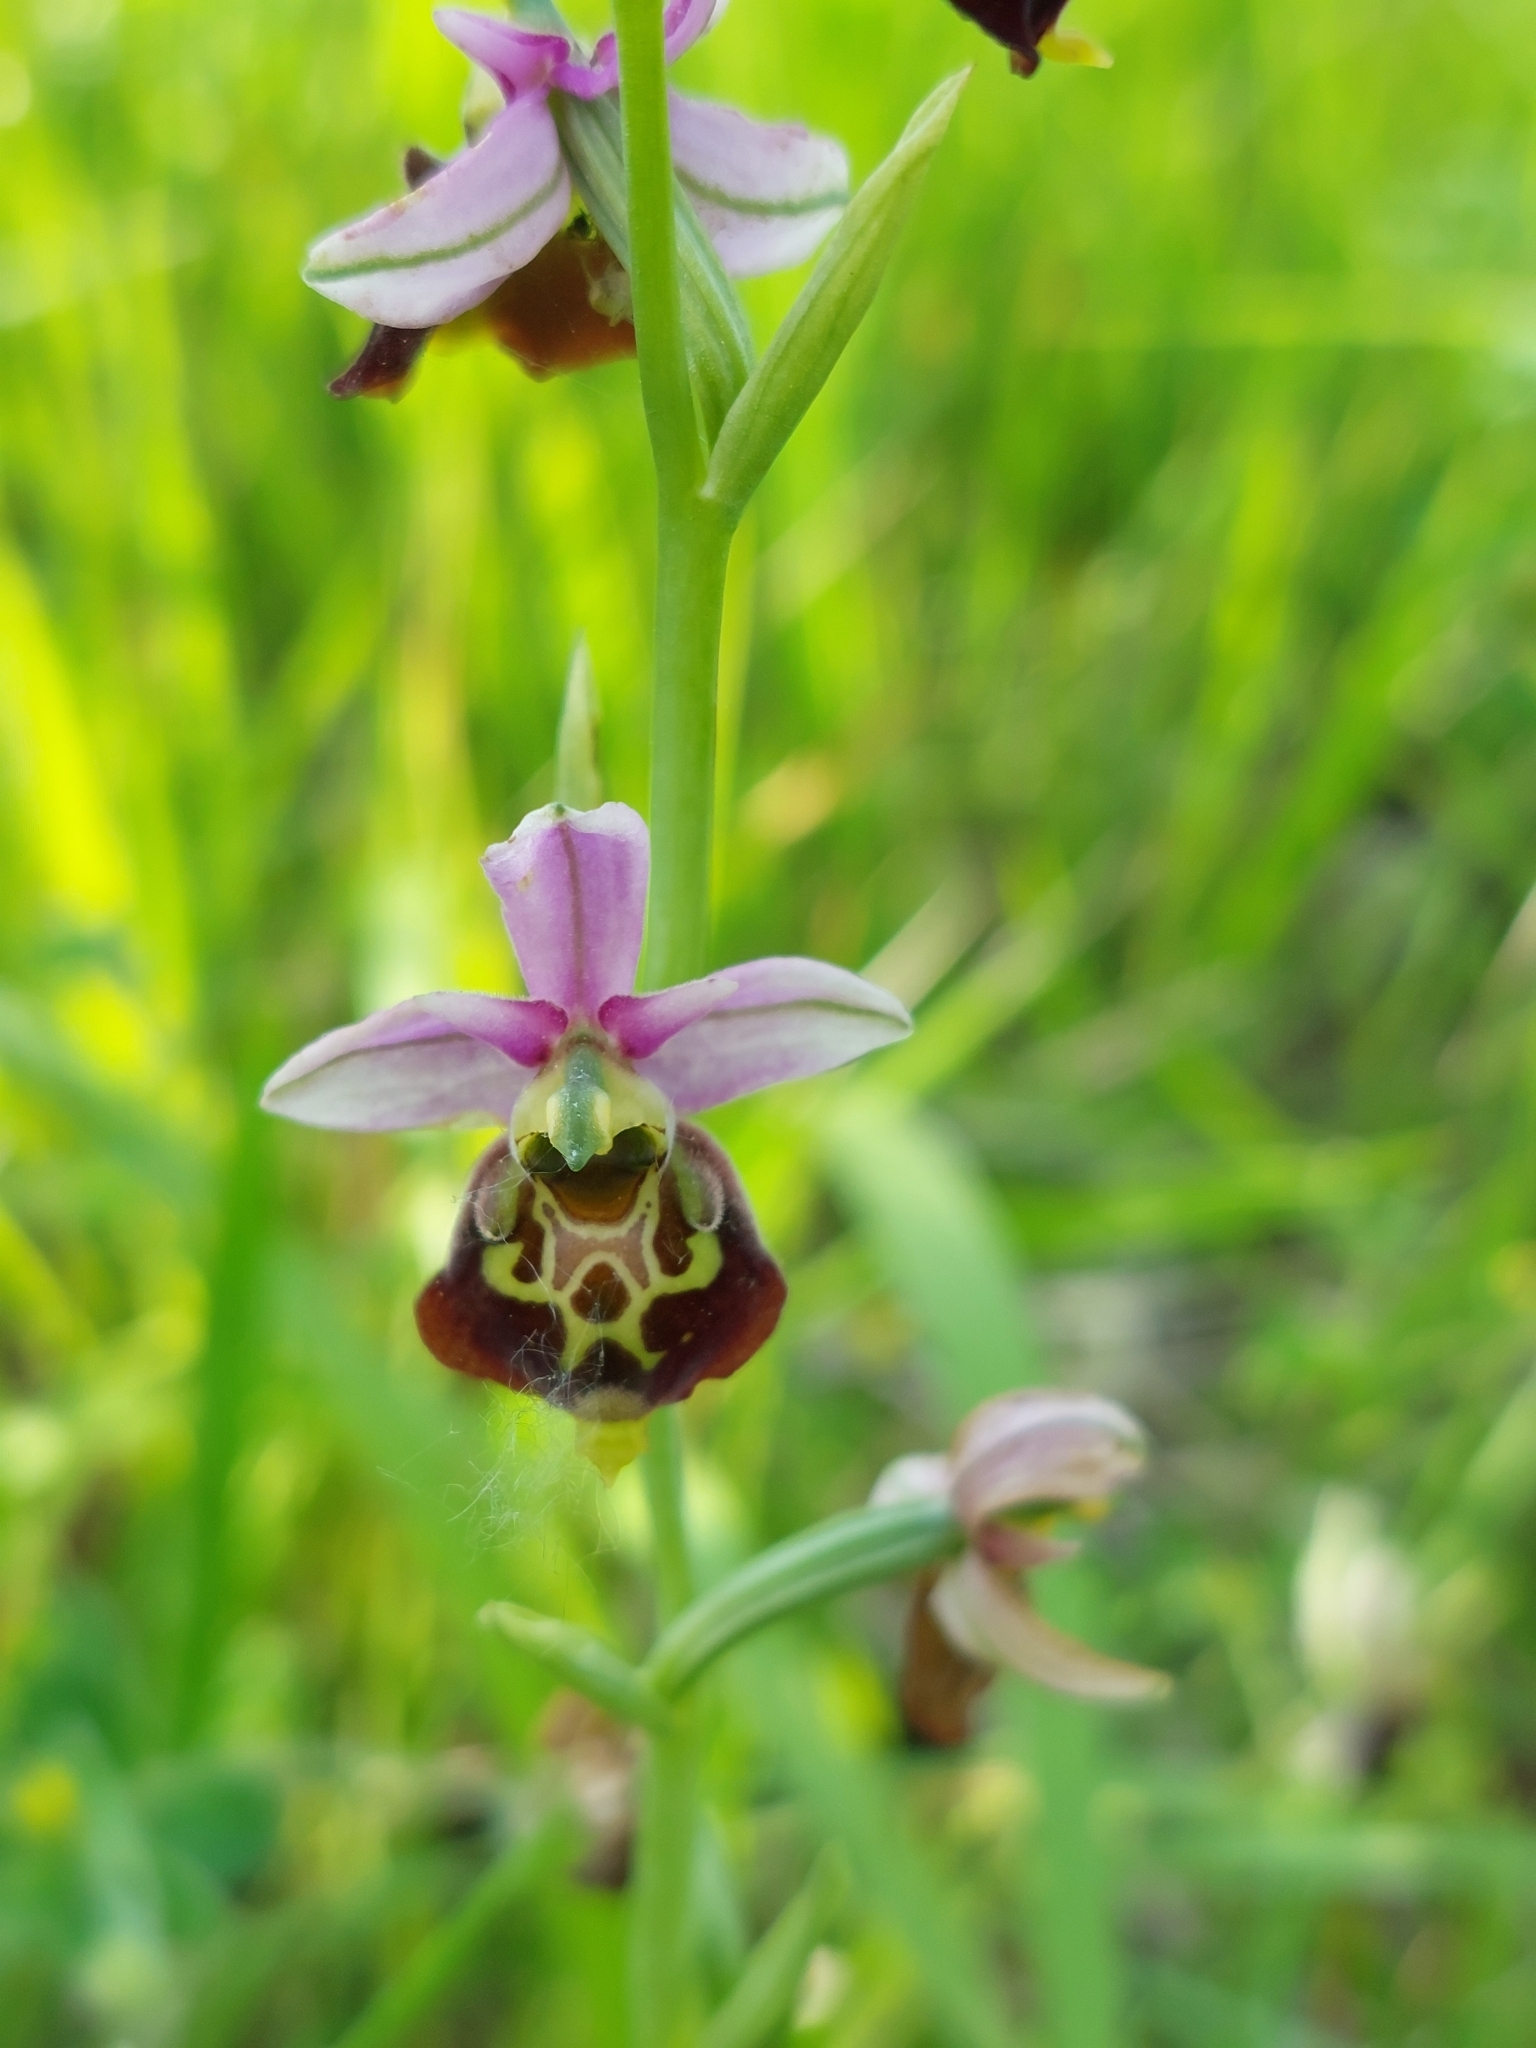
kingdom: Plantae
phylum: Tracheophyta
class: Liliopsida
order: Asparagales
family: Orchidaceae
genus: Ophrys
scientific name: Ophrys holosericea
